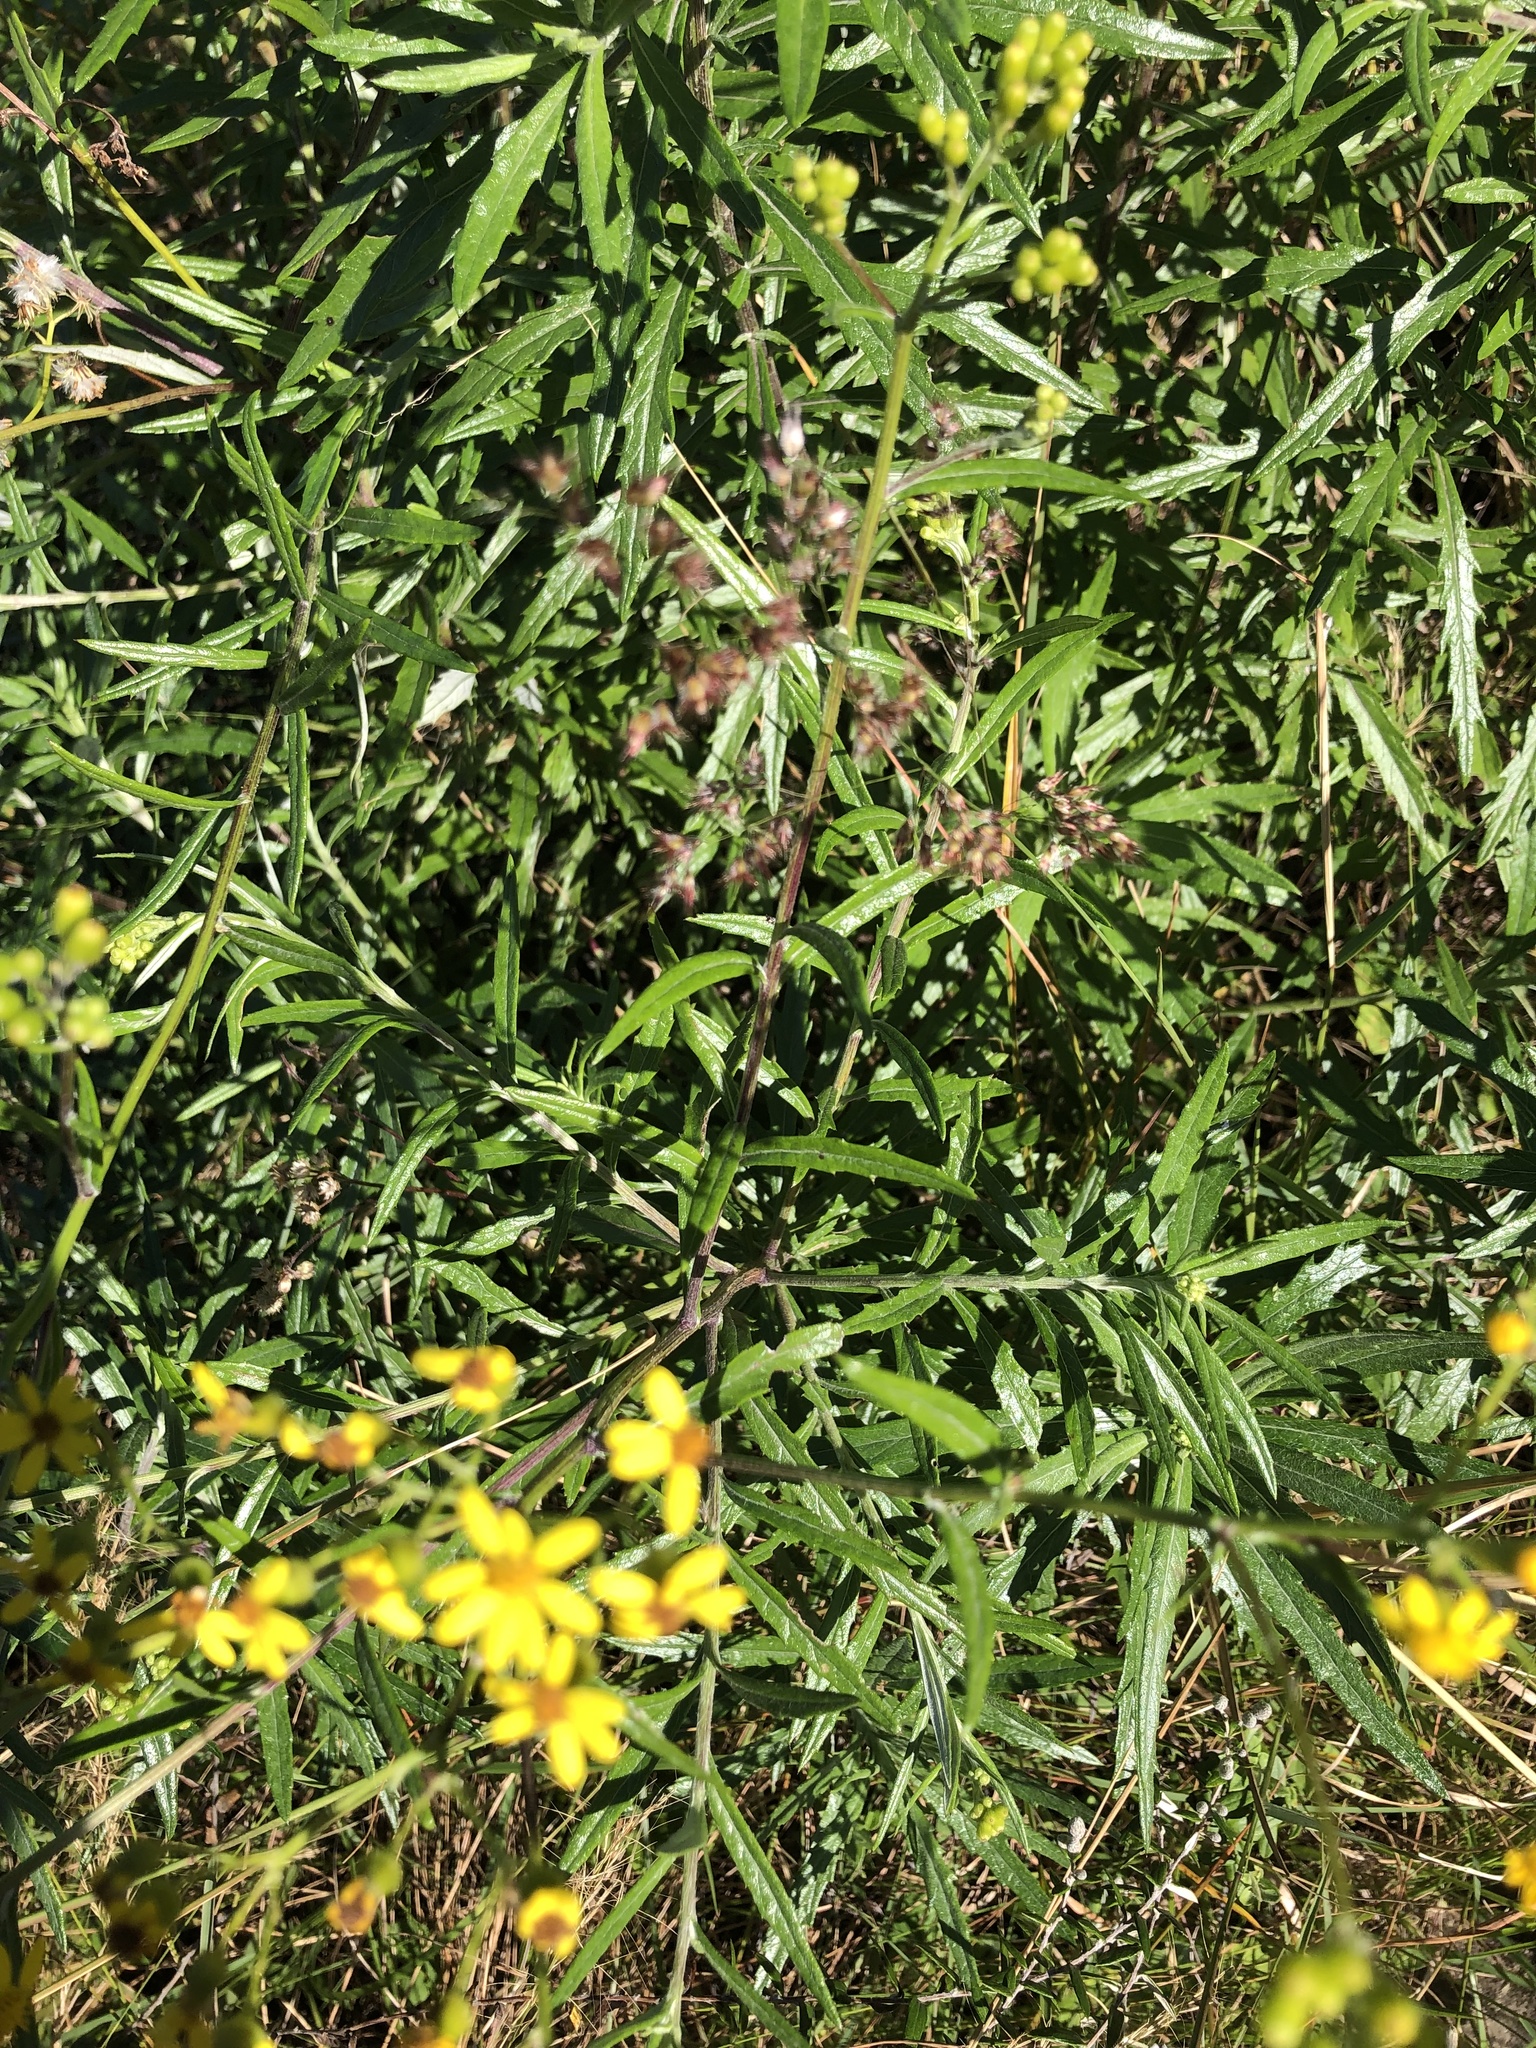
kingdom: Plantae
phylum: Tracheophyta
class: Magnoliopsida
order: Asterales
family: Asteraceae
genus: Senecio
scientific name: Senecio polyanthemoides
